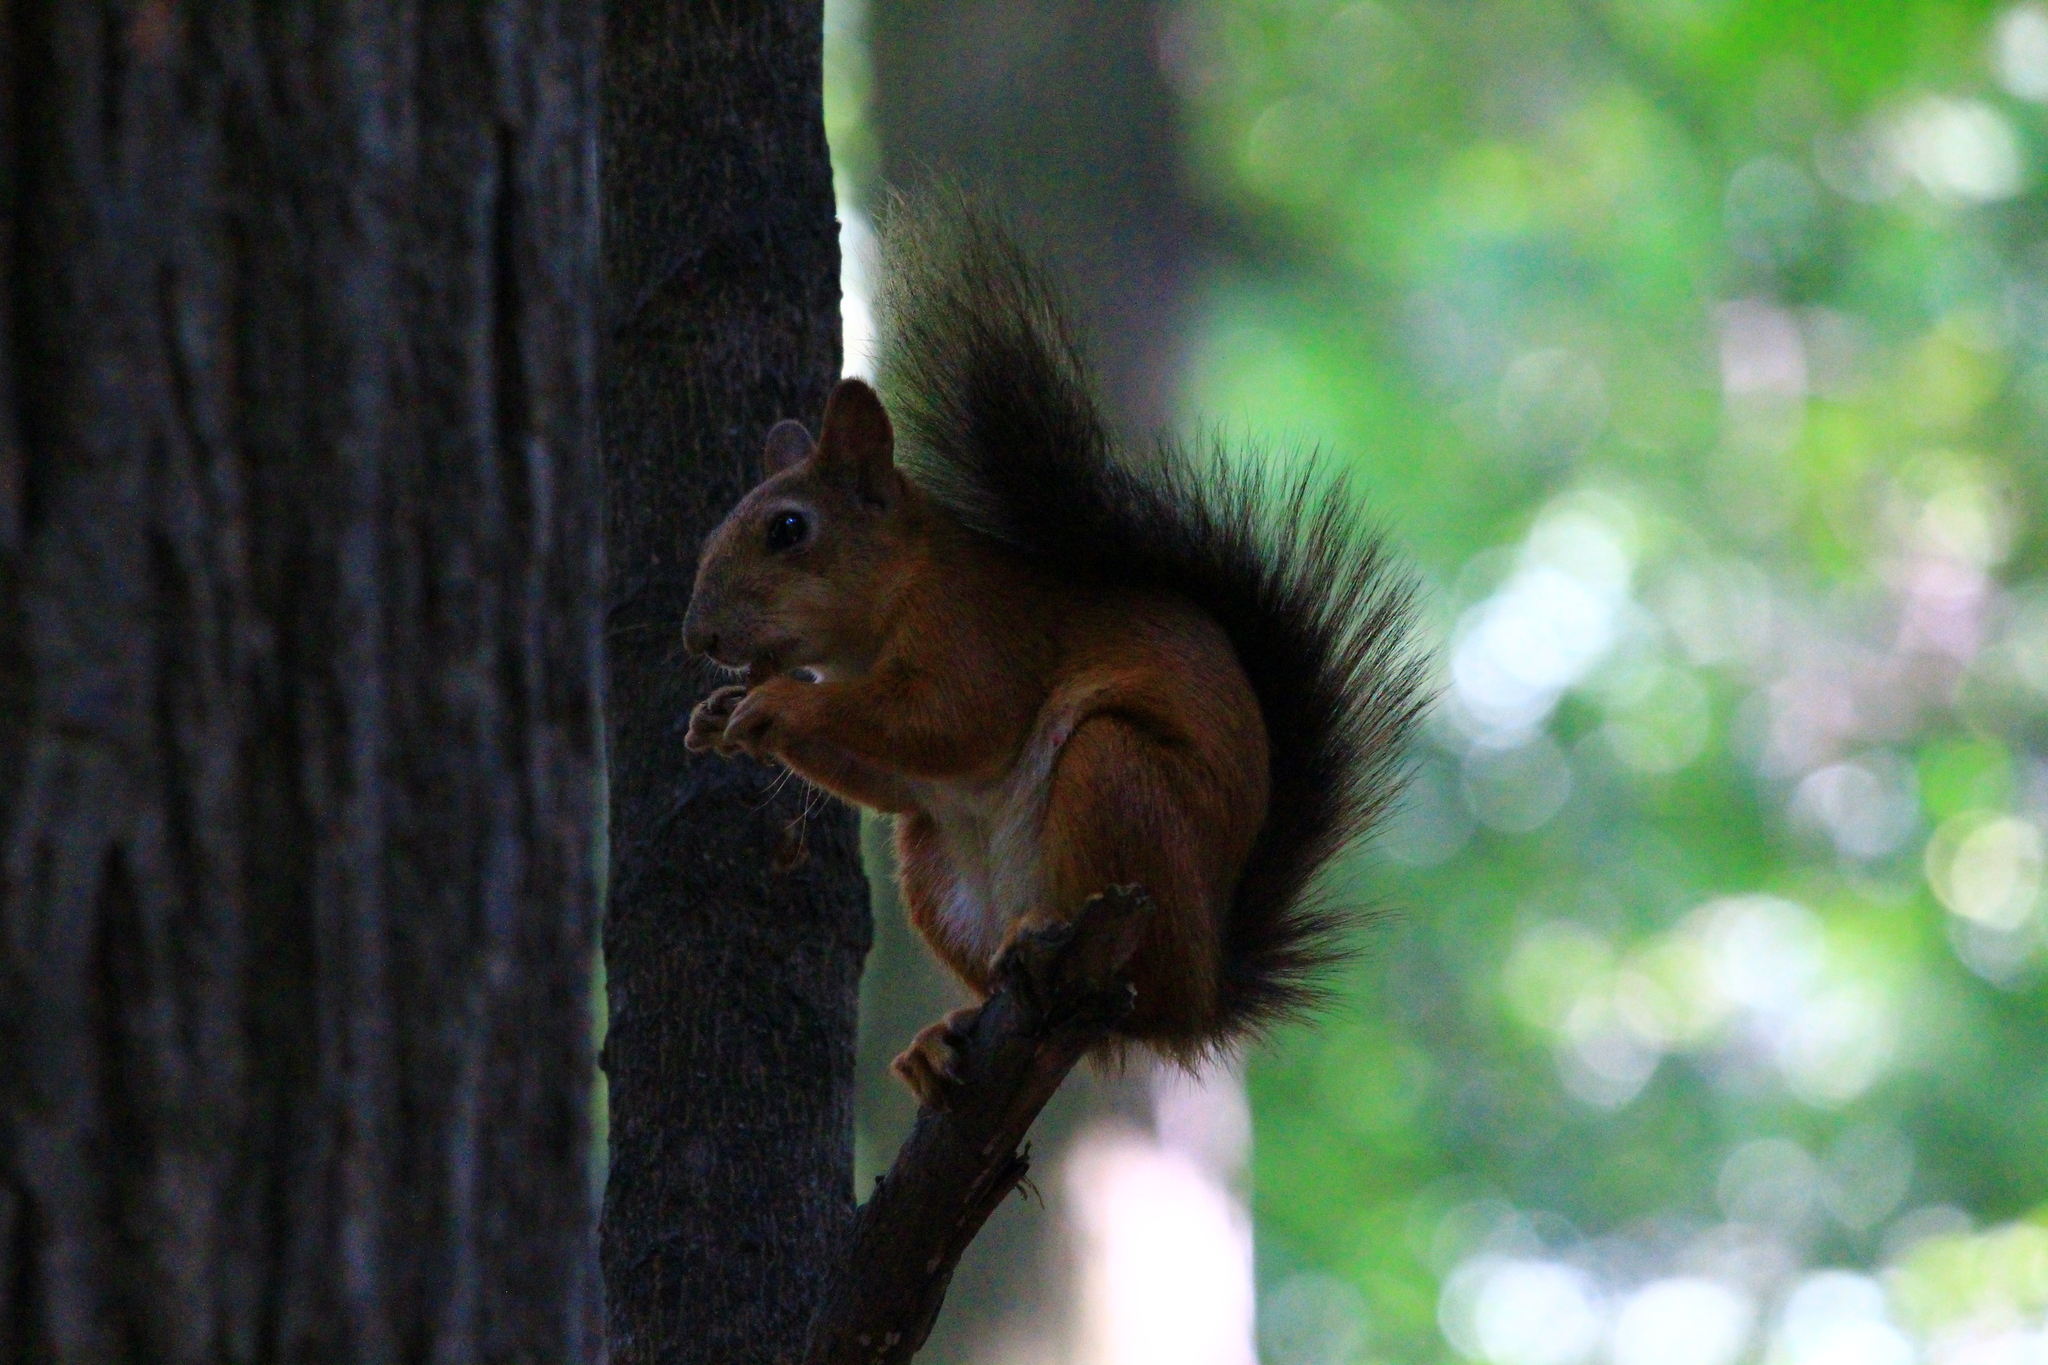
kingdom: Animalia
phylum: Chordata
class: Mammalia
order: Rodentia
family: Sciuridae
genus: Sciurus
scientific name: Sciurus vulgaris
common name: Eurasian red squirrel
